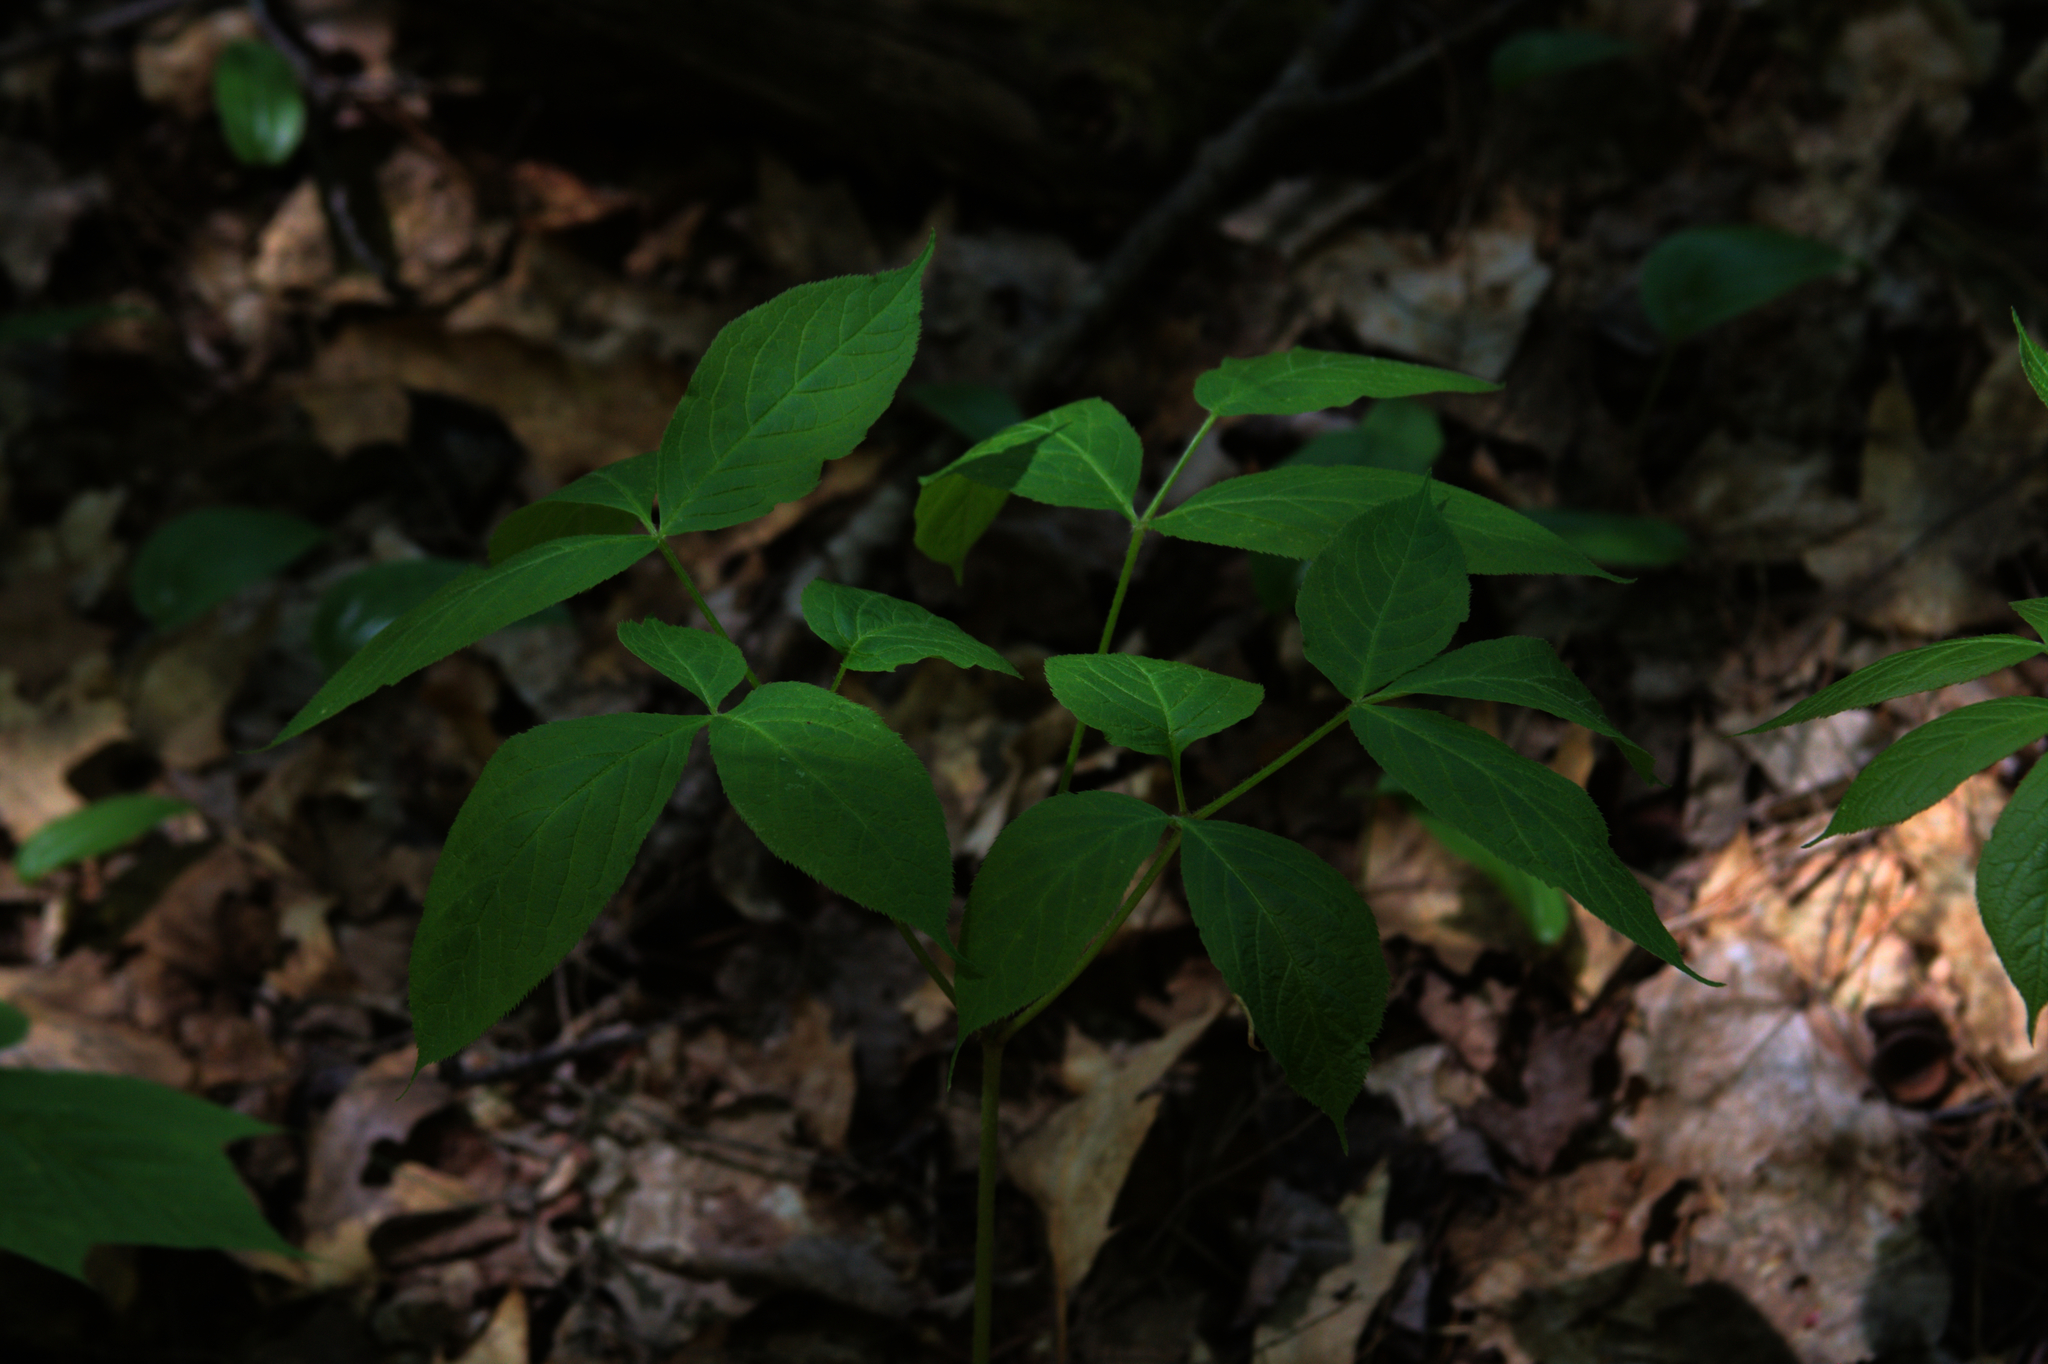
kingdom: Plantae
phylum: Tracheophyta
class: Magnoliopsida
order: Apiales
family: Araliaceae
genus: Aralia
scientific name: Aralia nudicaulis
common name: Wild sarsaparilla
